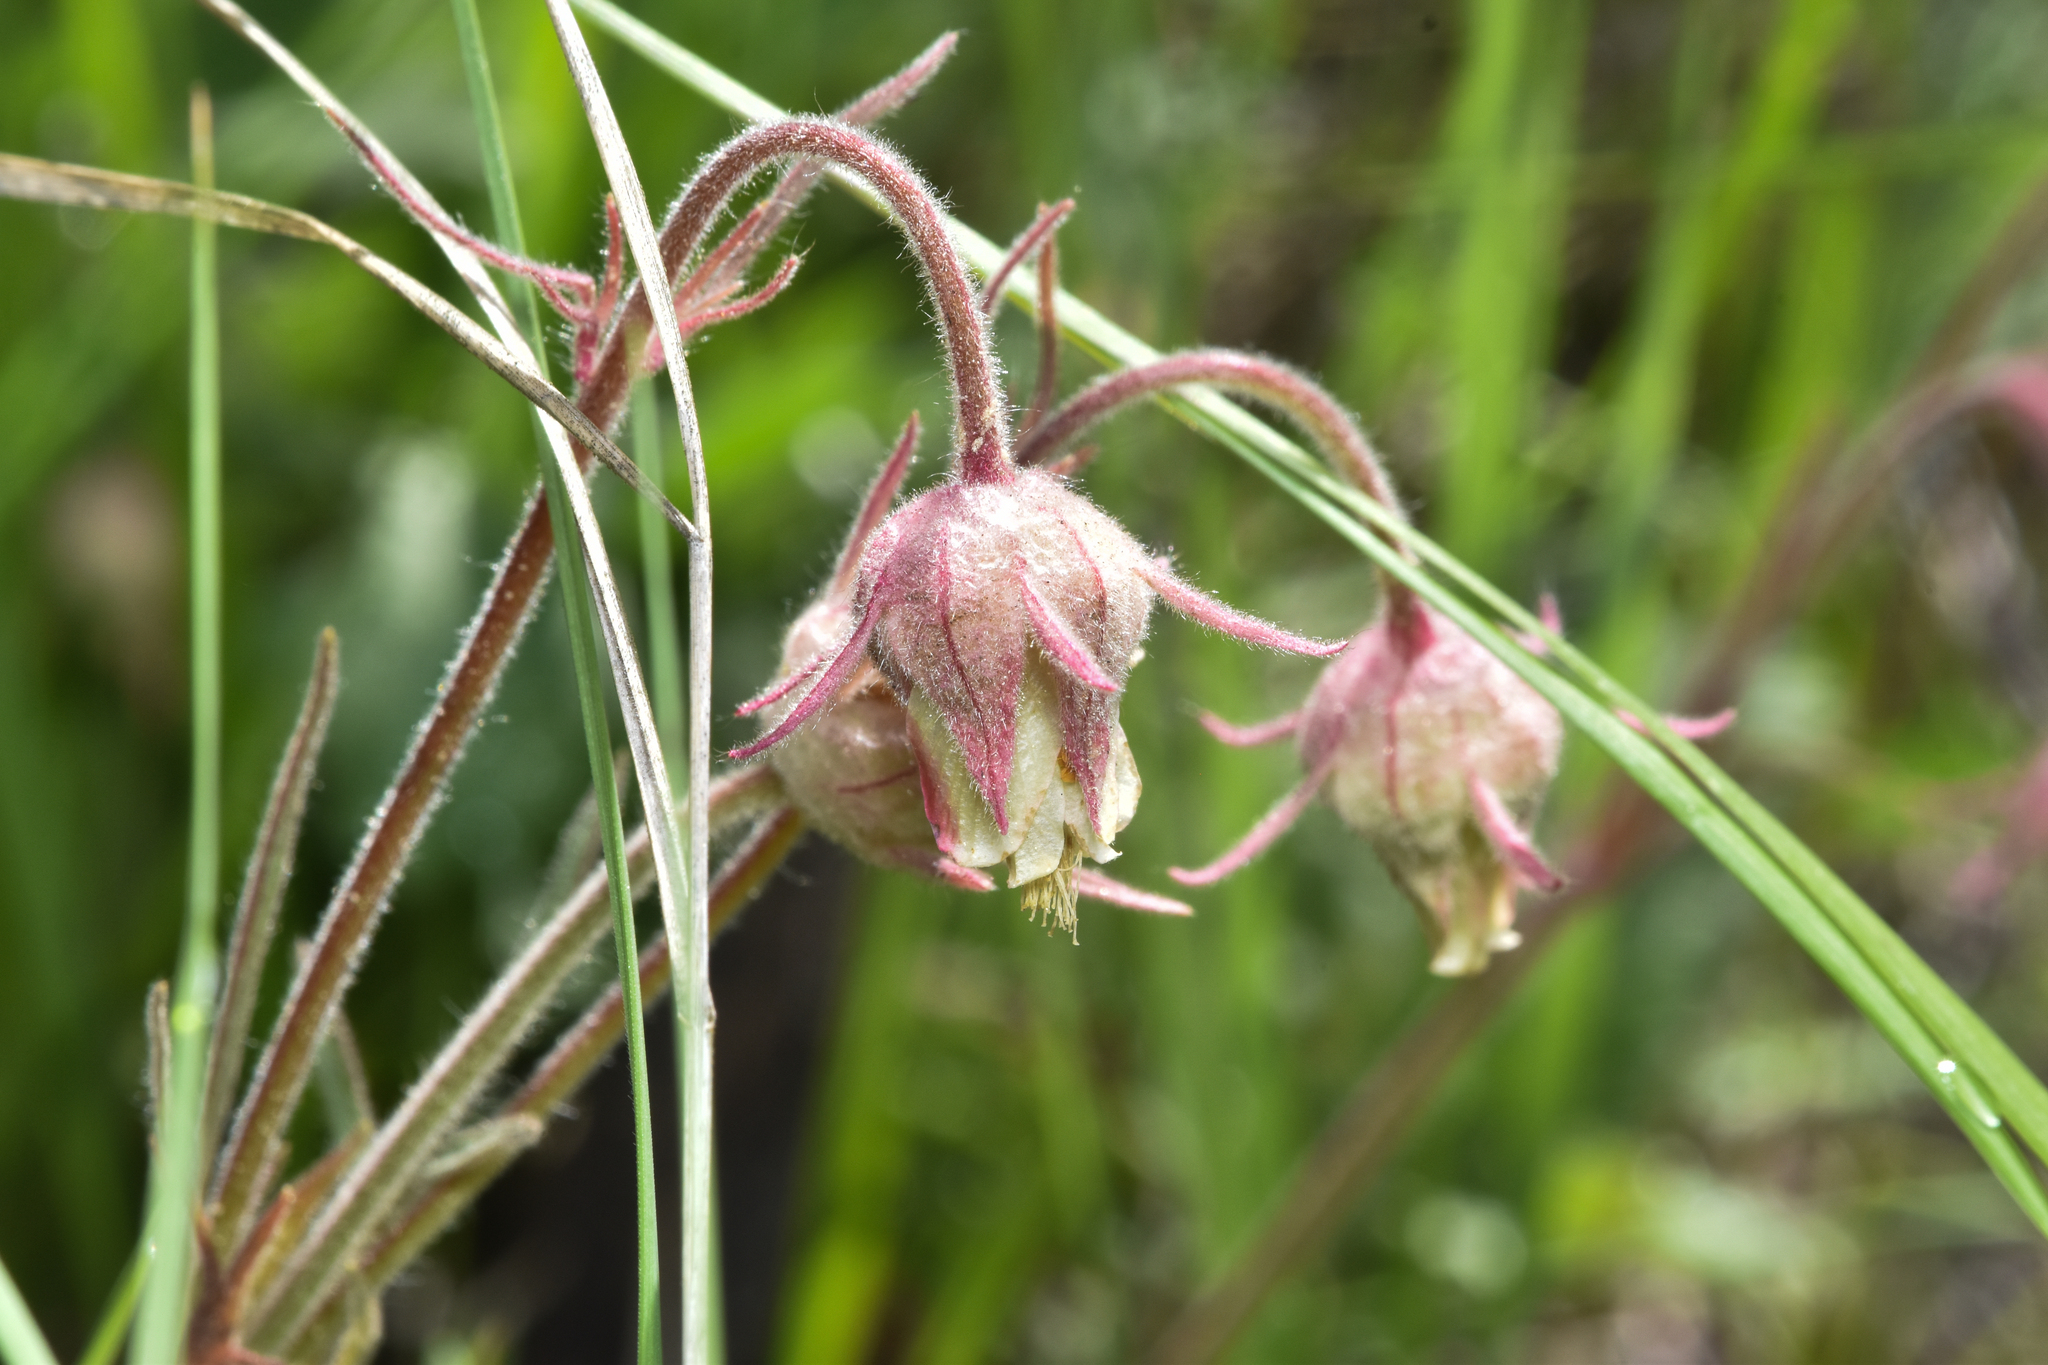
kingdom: Plantae
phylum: Tracheophyta
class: Magnoliopsida
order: Rosales
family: Rosaceae
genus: Geum
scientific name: Geum triflorum
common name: Old man's whiskers
